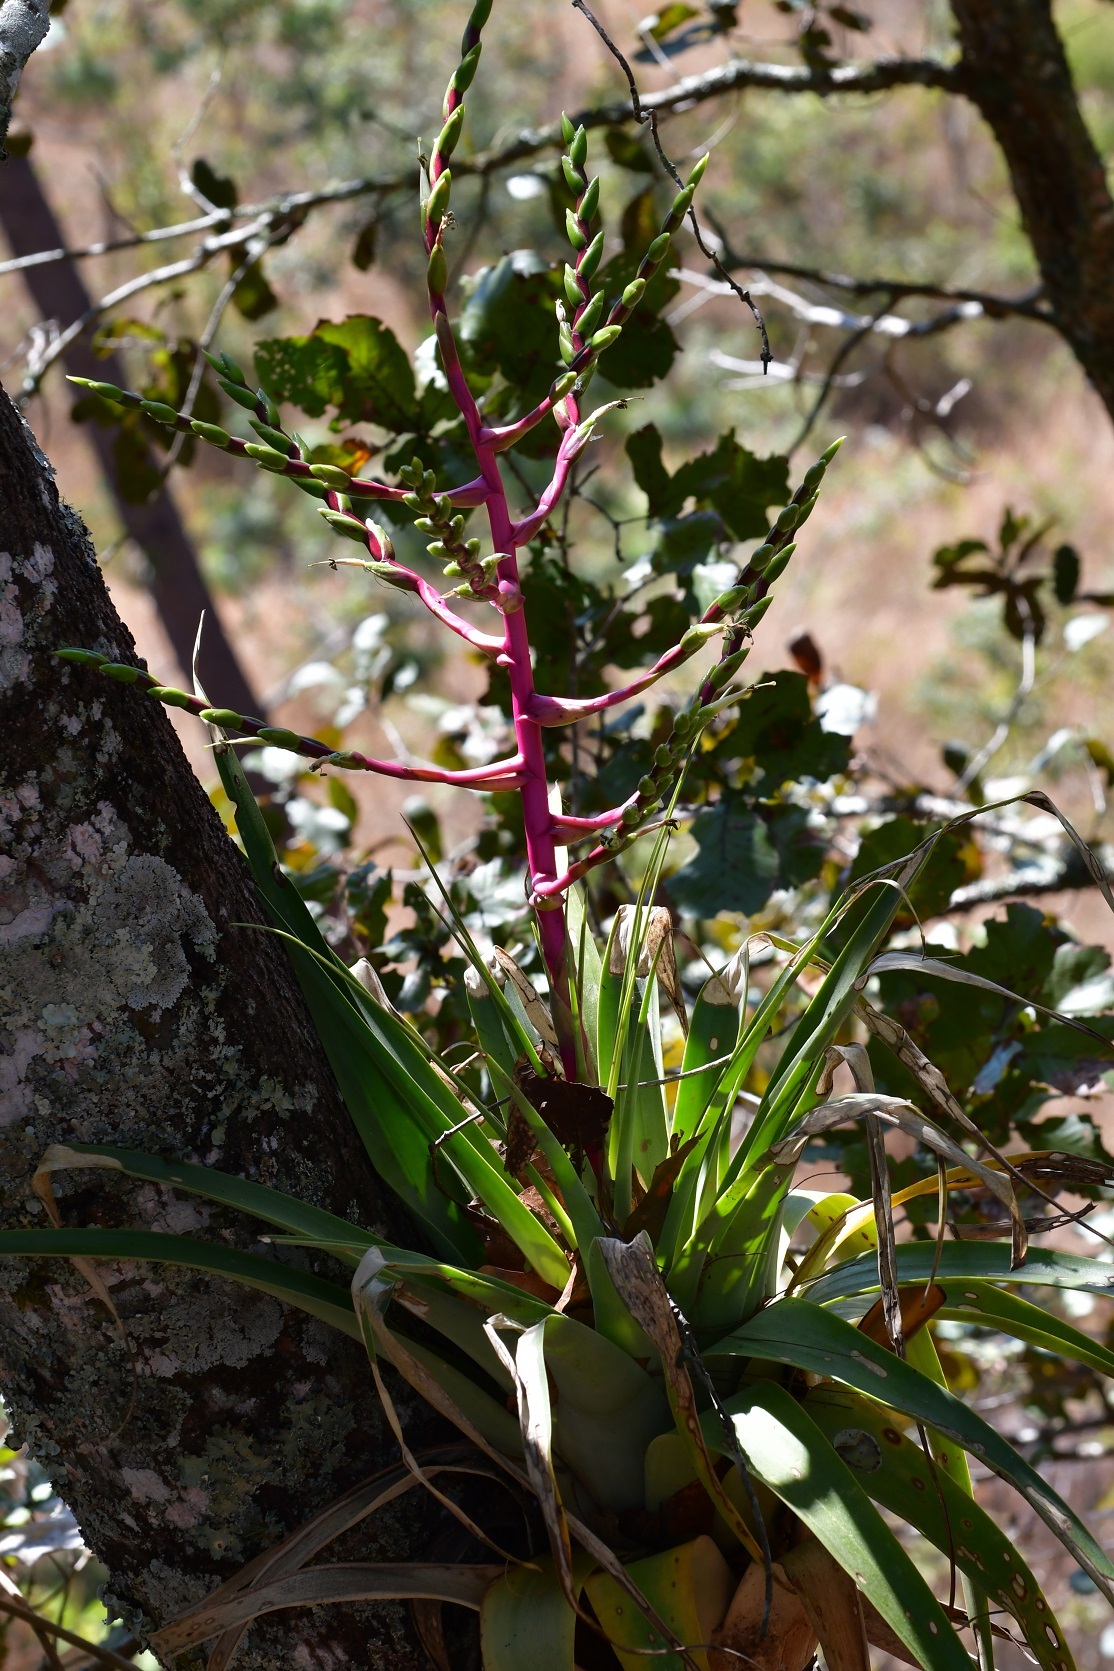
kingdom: Plantae
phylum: Tracheophyta
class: Liliopsida
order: Poales
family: Bromeliaceae
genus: Tillandsia
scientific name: Tillandsia comitanensis
